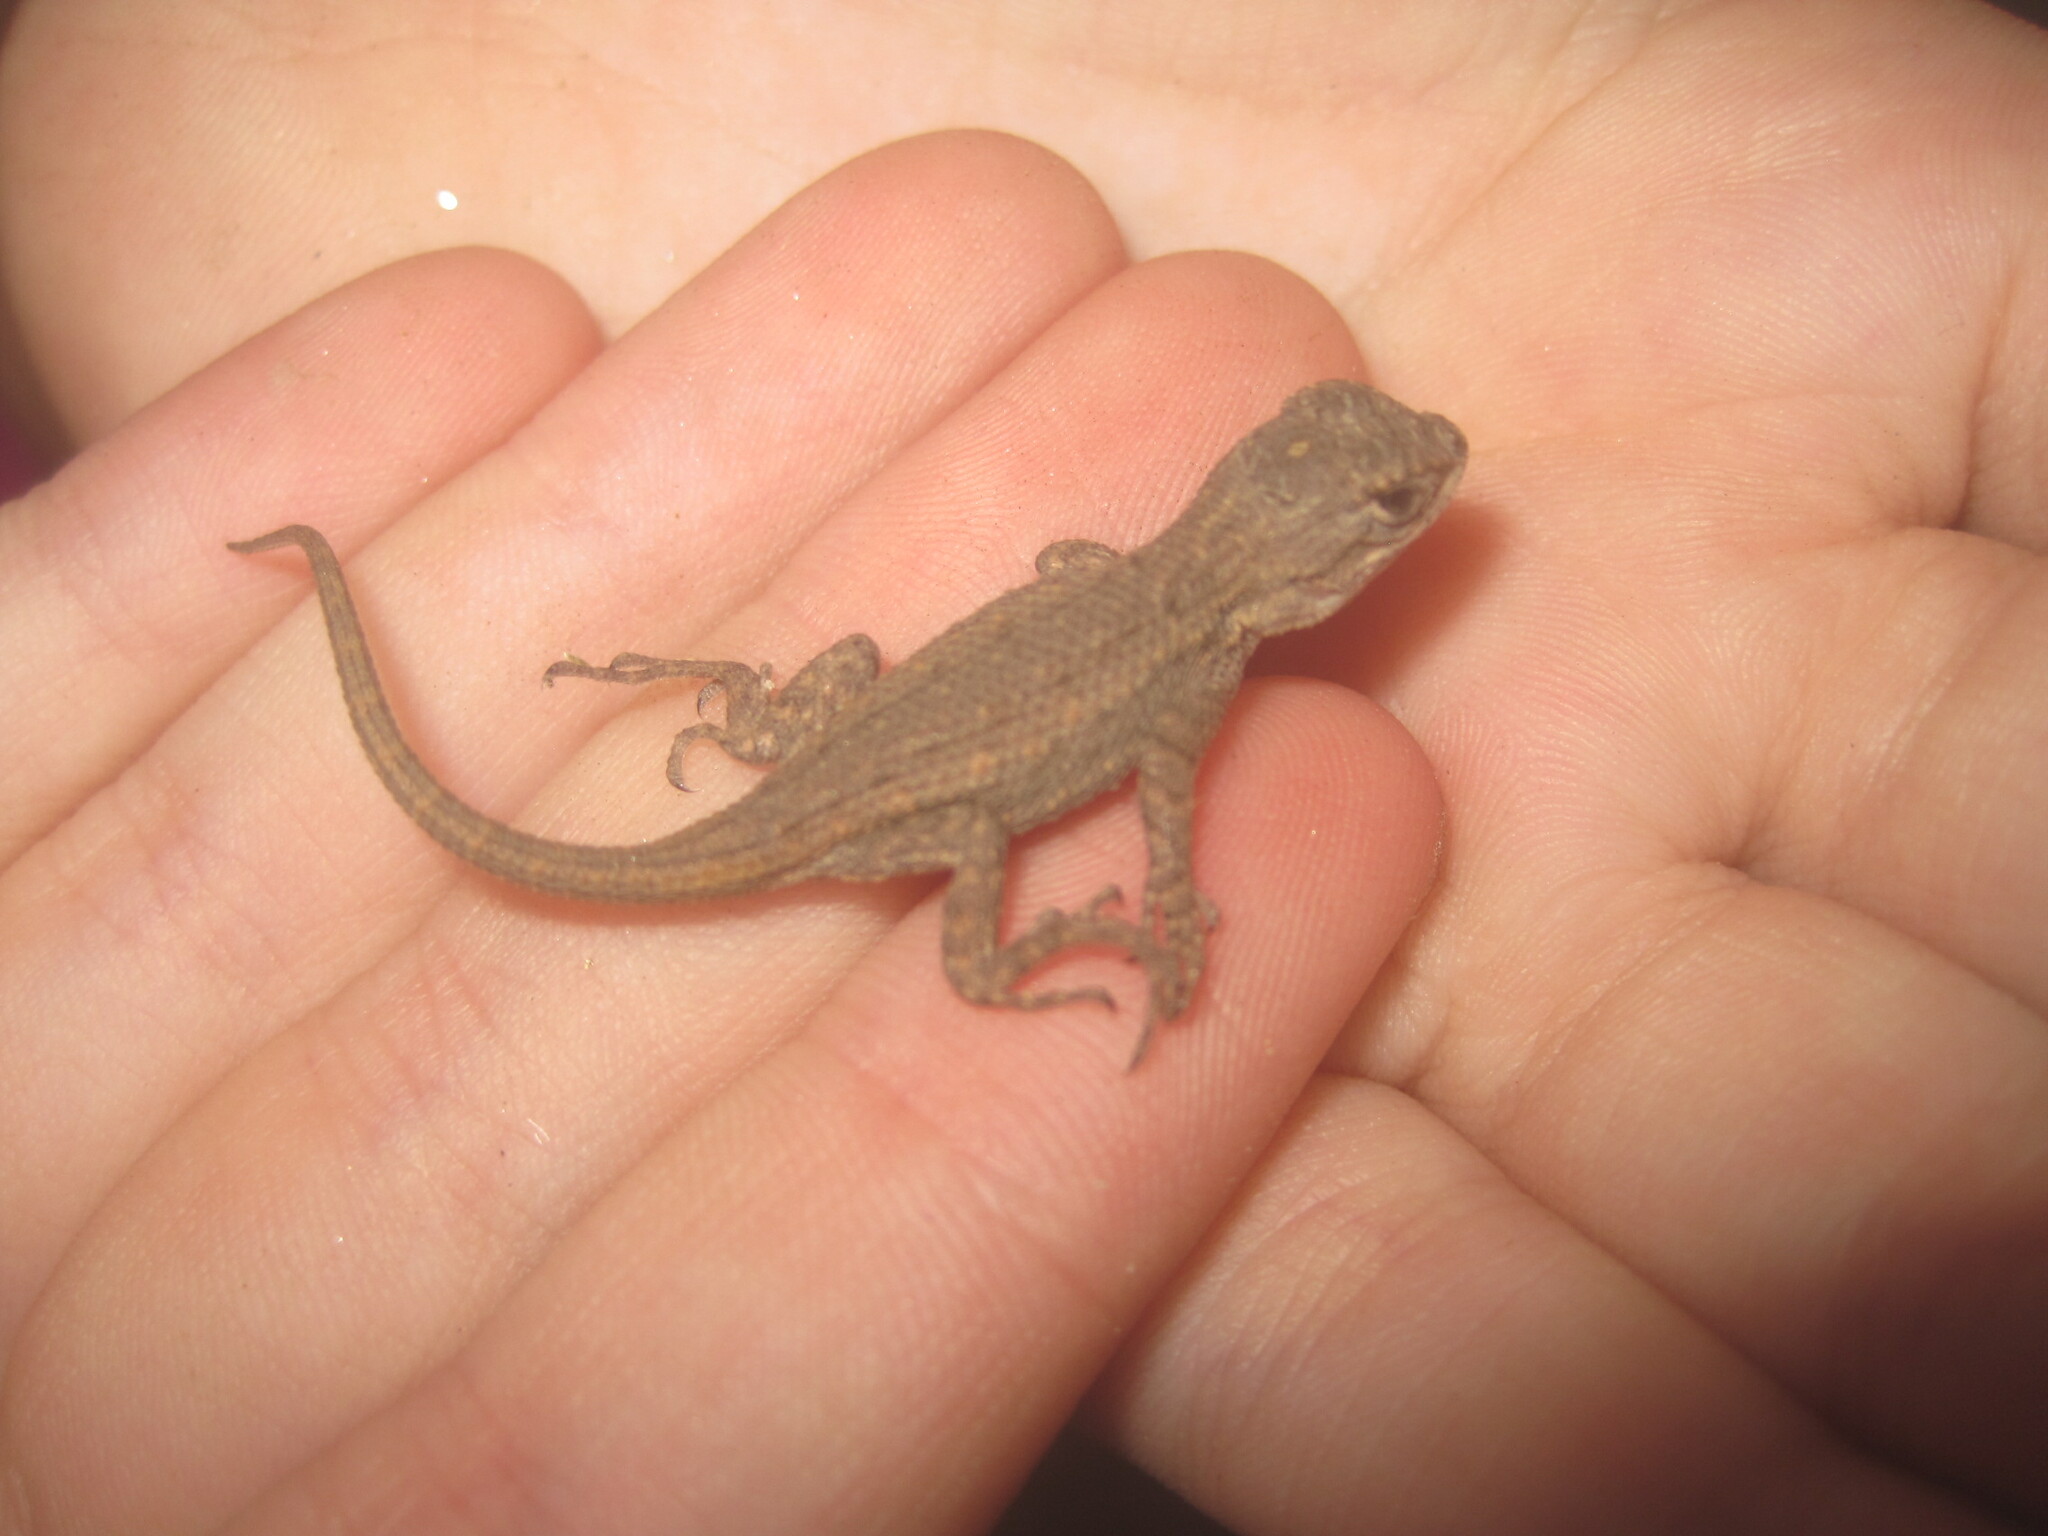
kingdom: Animalia
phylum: Chordata
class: Squamata
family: Phrynosomatidae
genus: Sceloporus
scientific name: Sceloporus occidentalis
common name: Western fence lizard
